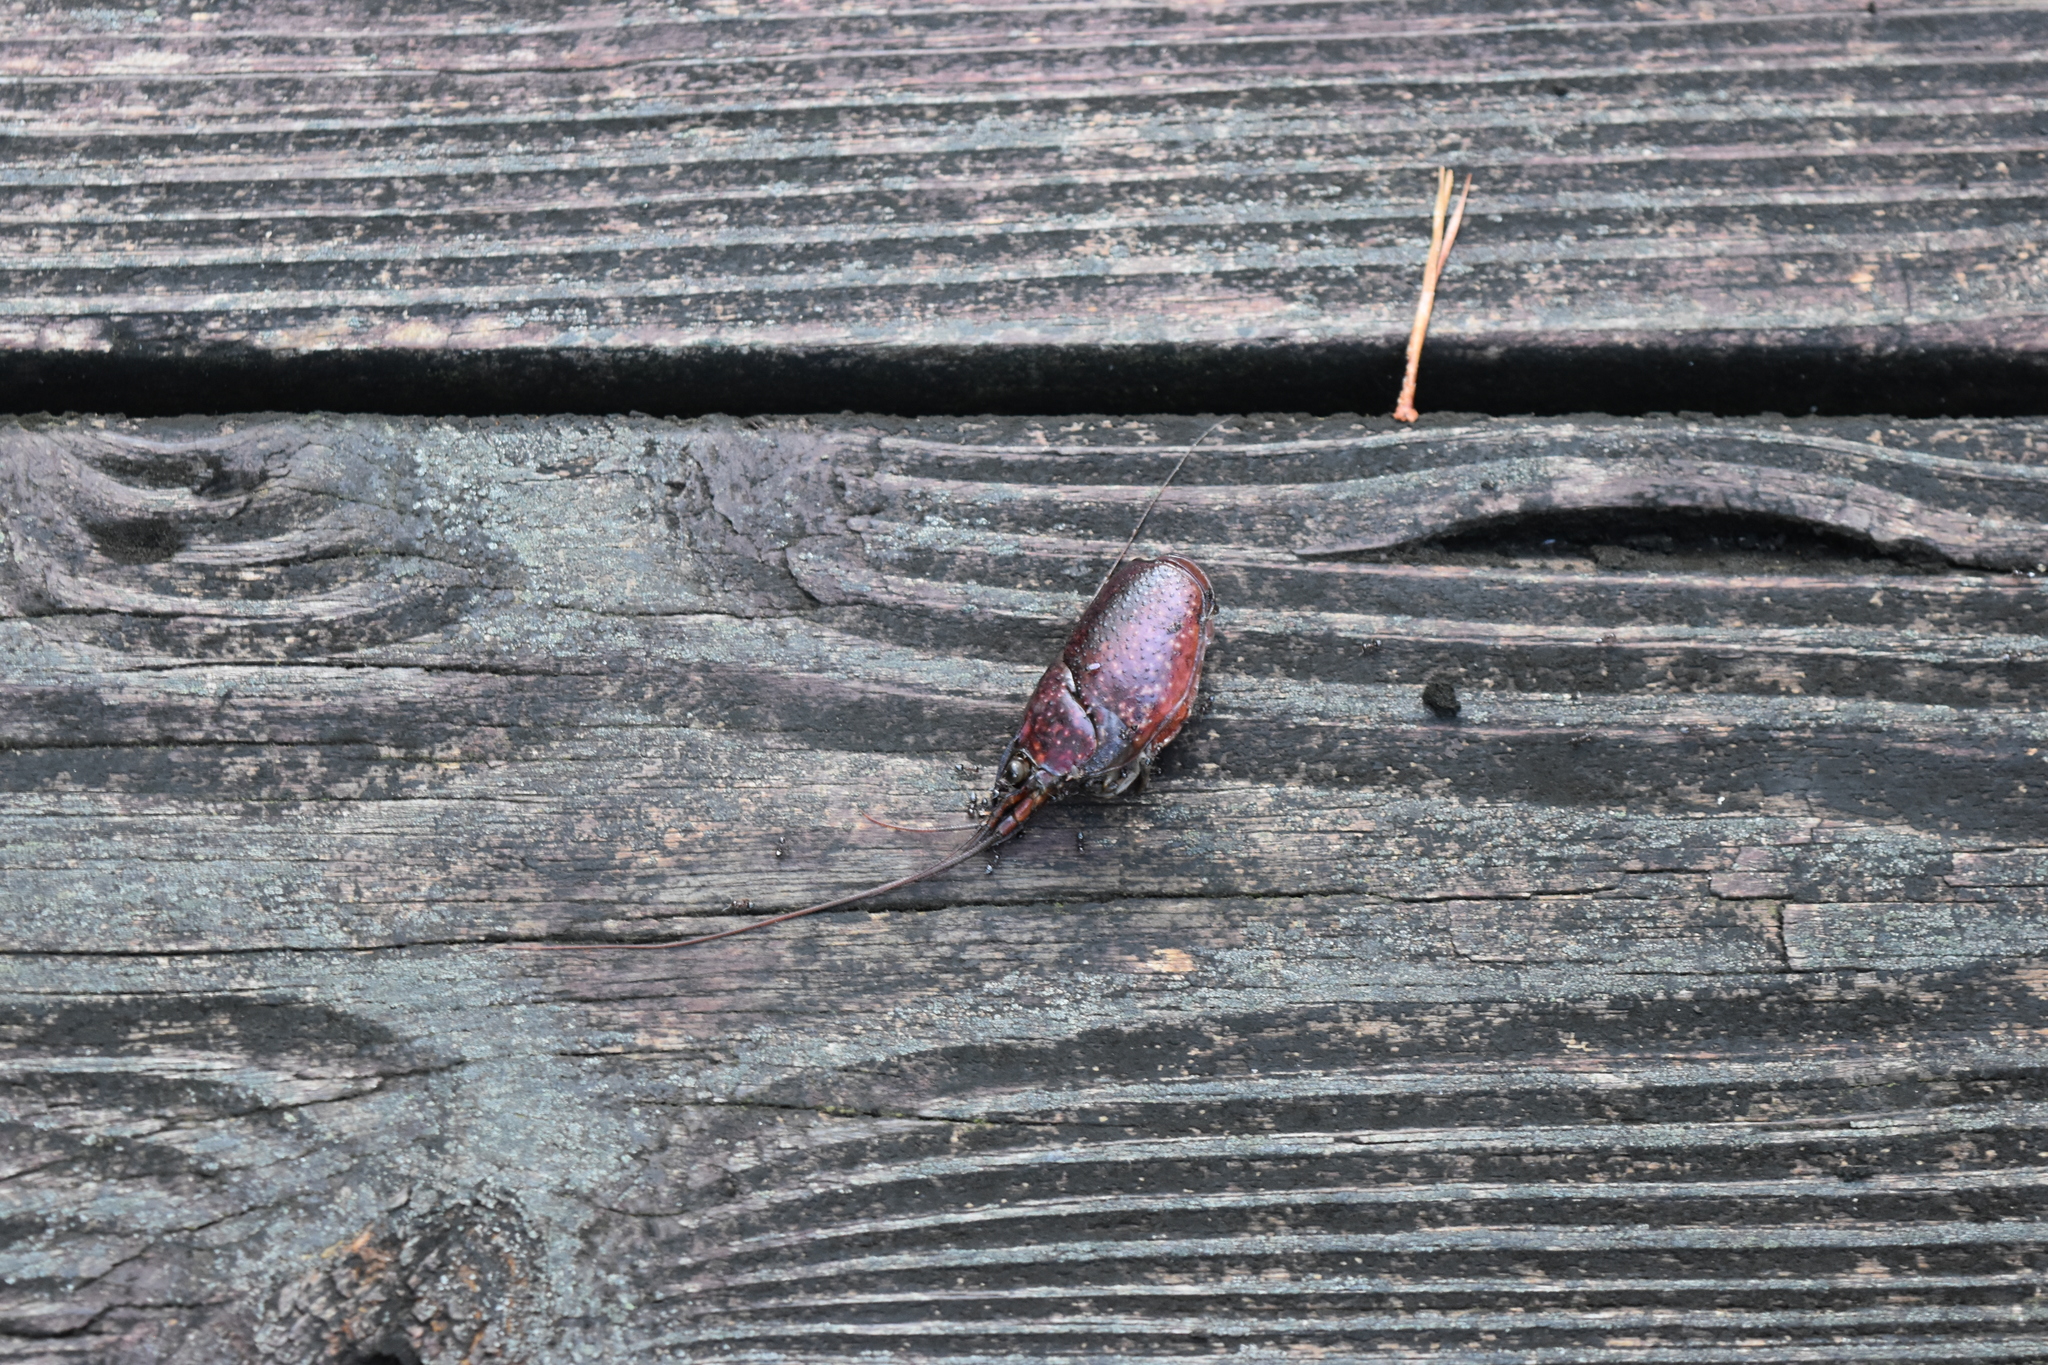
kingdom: Animalia
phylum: Arthropoda
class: Malacostraca
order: Decapoda
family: Cambaridae
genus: Procambarus
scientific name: Procambarus clarkii
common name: Red swamp crayfish
